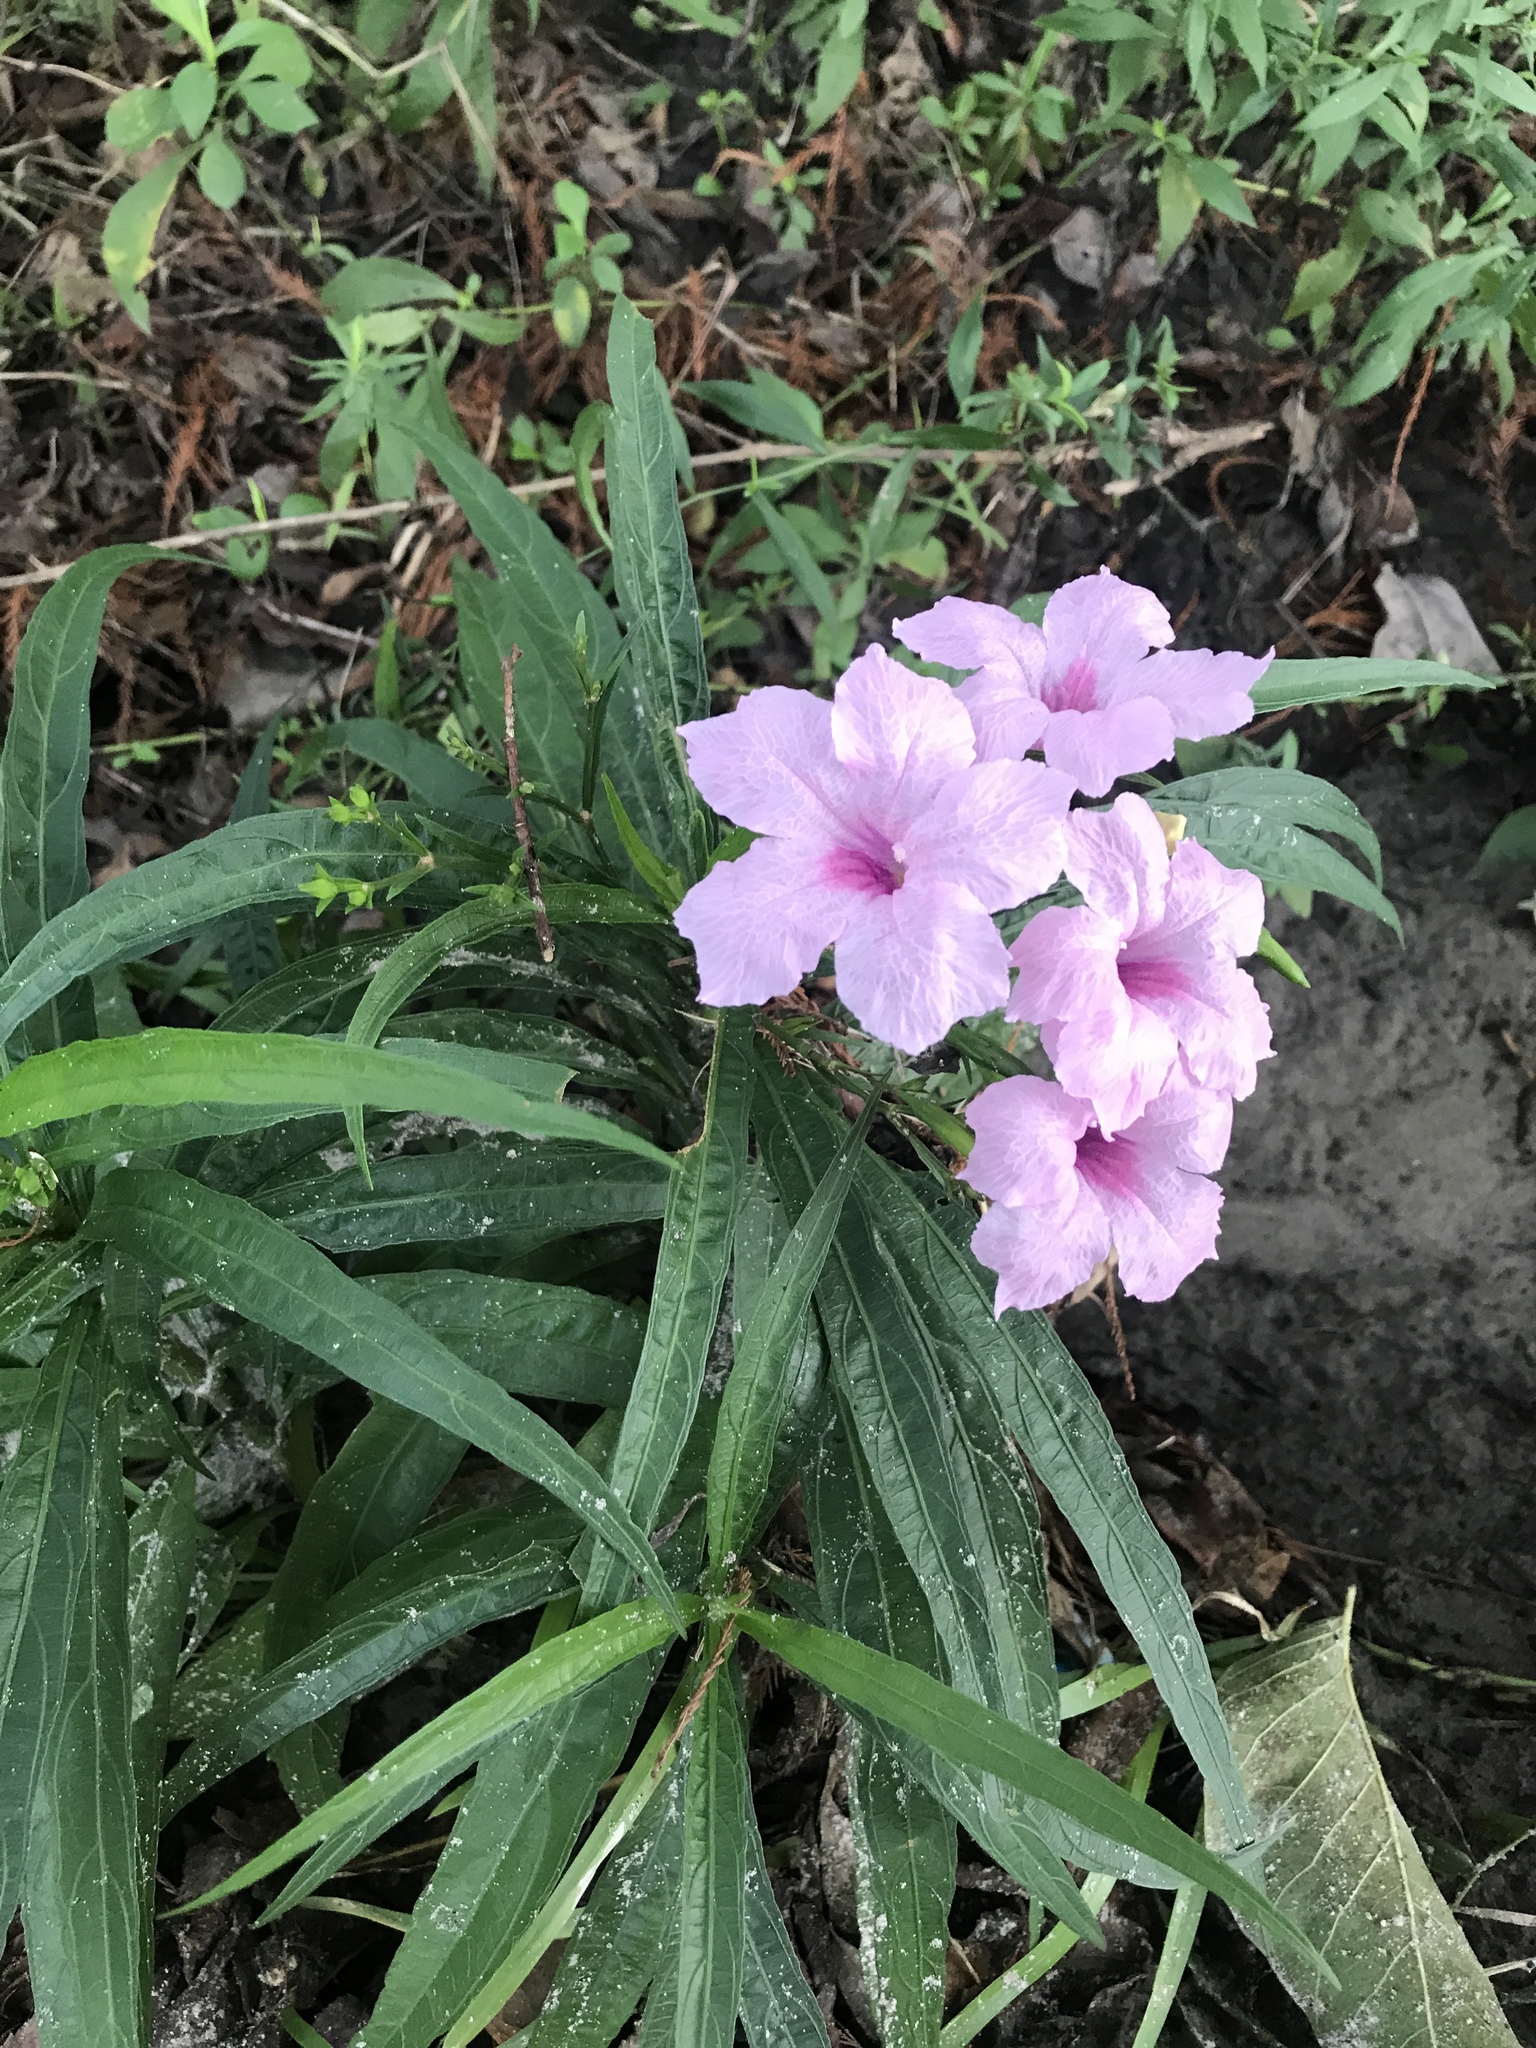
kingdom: Plantae
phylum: Tracheophyta
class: Magnoliopsida
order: Lamiales
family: Acanthaceae
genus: Ruellia
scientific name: Ruellia simplex
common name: Softseed wild petunia
